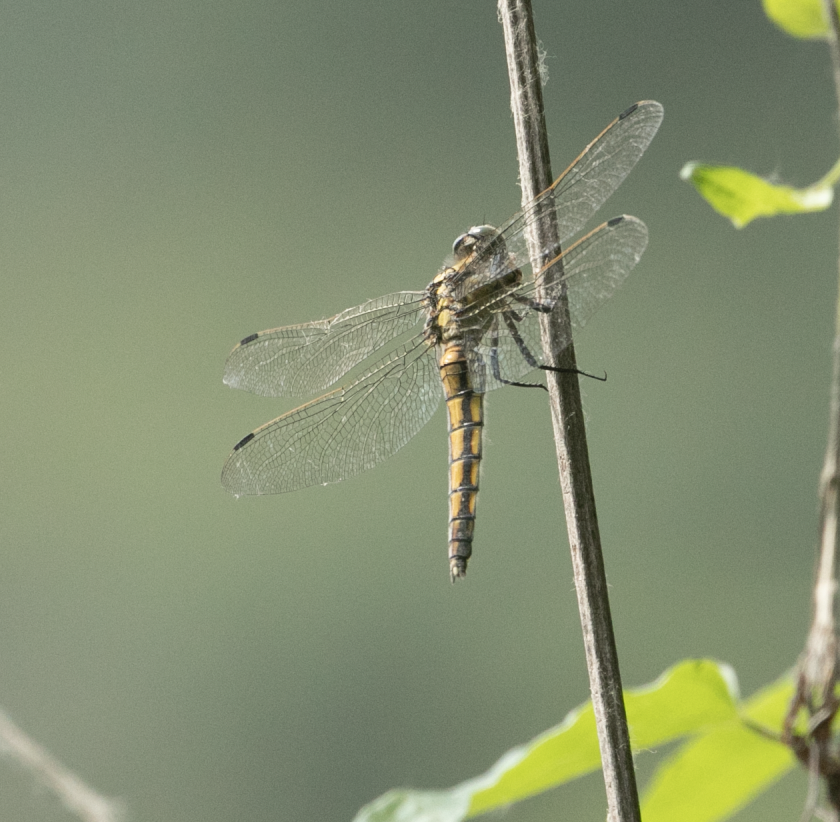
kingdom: Animalia
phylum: Arthropoda
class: Insecta
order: Odonata
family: Libellulidae
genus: Orthetrum
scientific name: Orthetrum cancellatum
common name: Black-tailed skimmer
